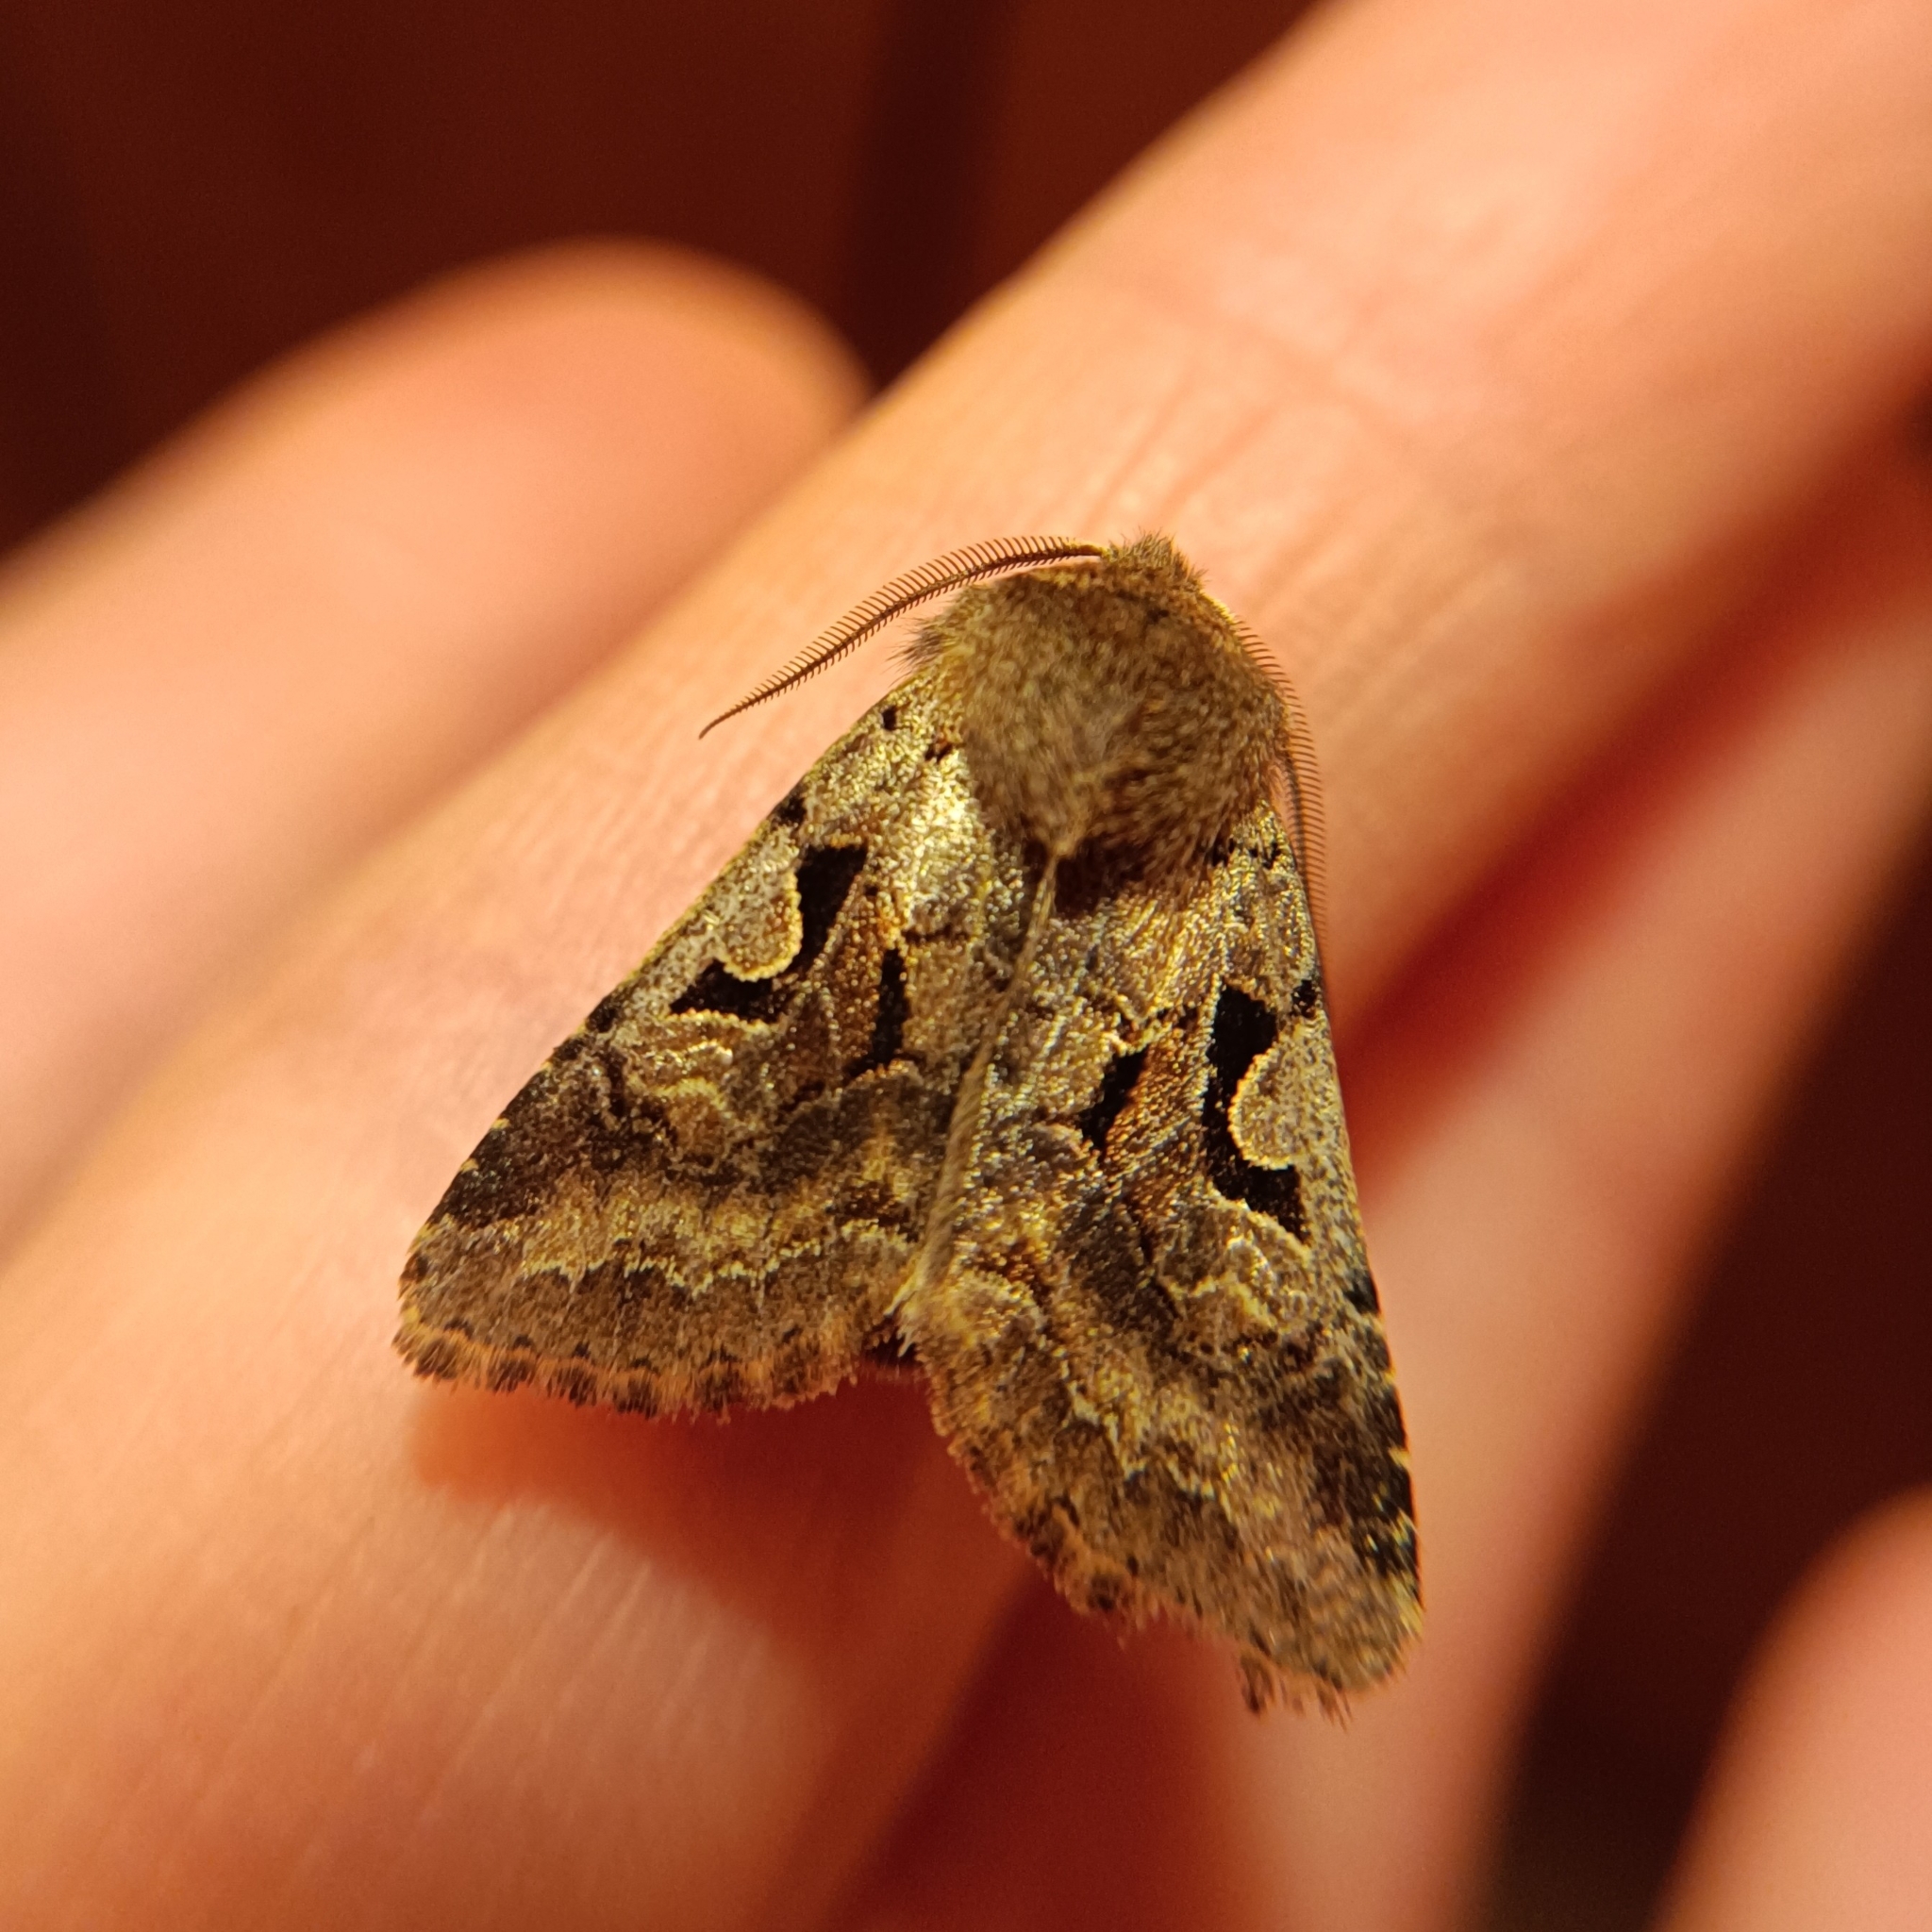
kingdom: Animalia
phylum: Arthropoda
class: Insecta
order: Lepidoptera
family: Noctuidae
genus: Orthosia
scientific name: Orthosia gothica
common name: Hebrew character
